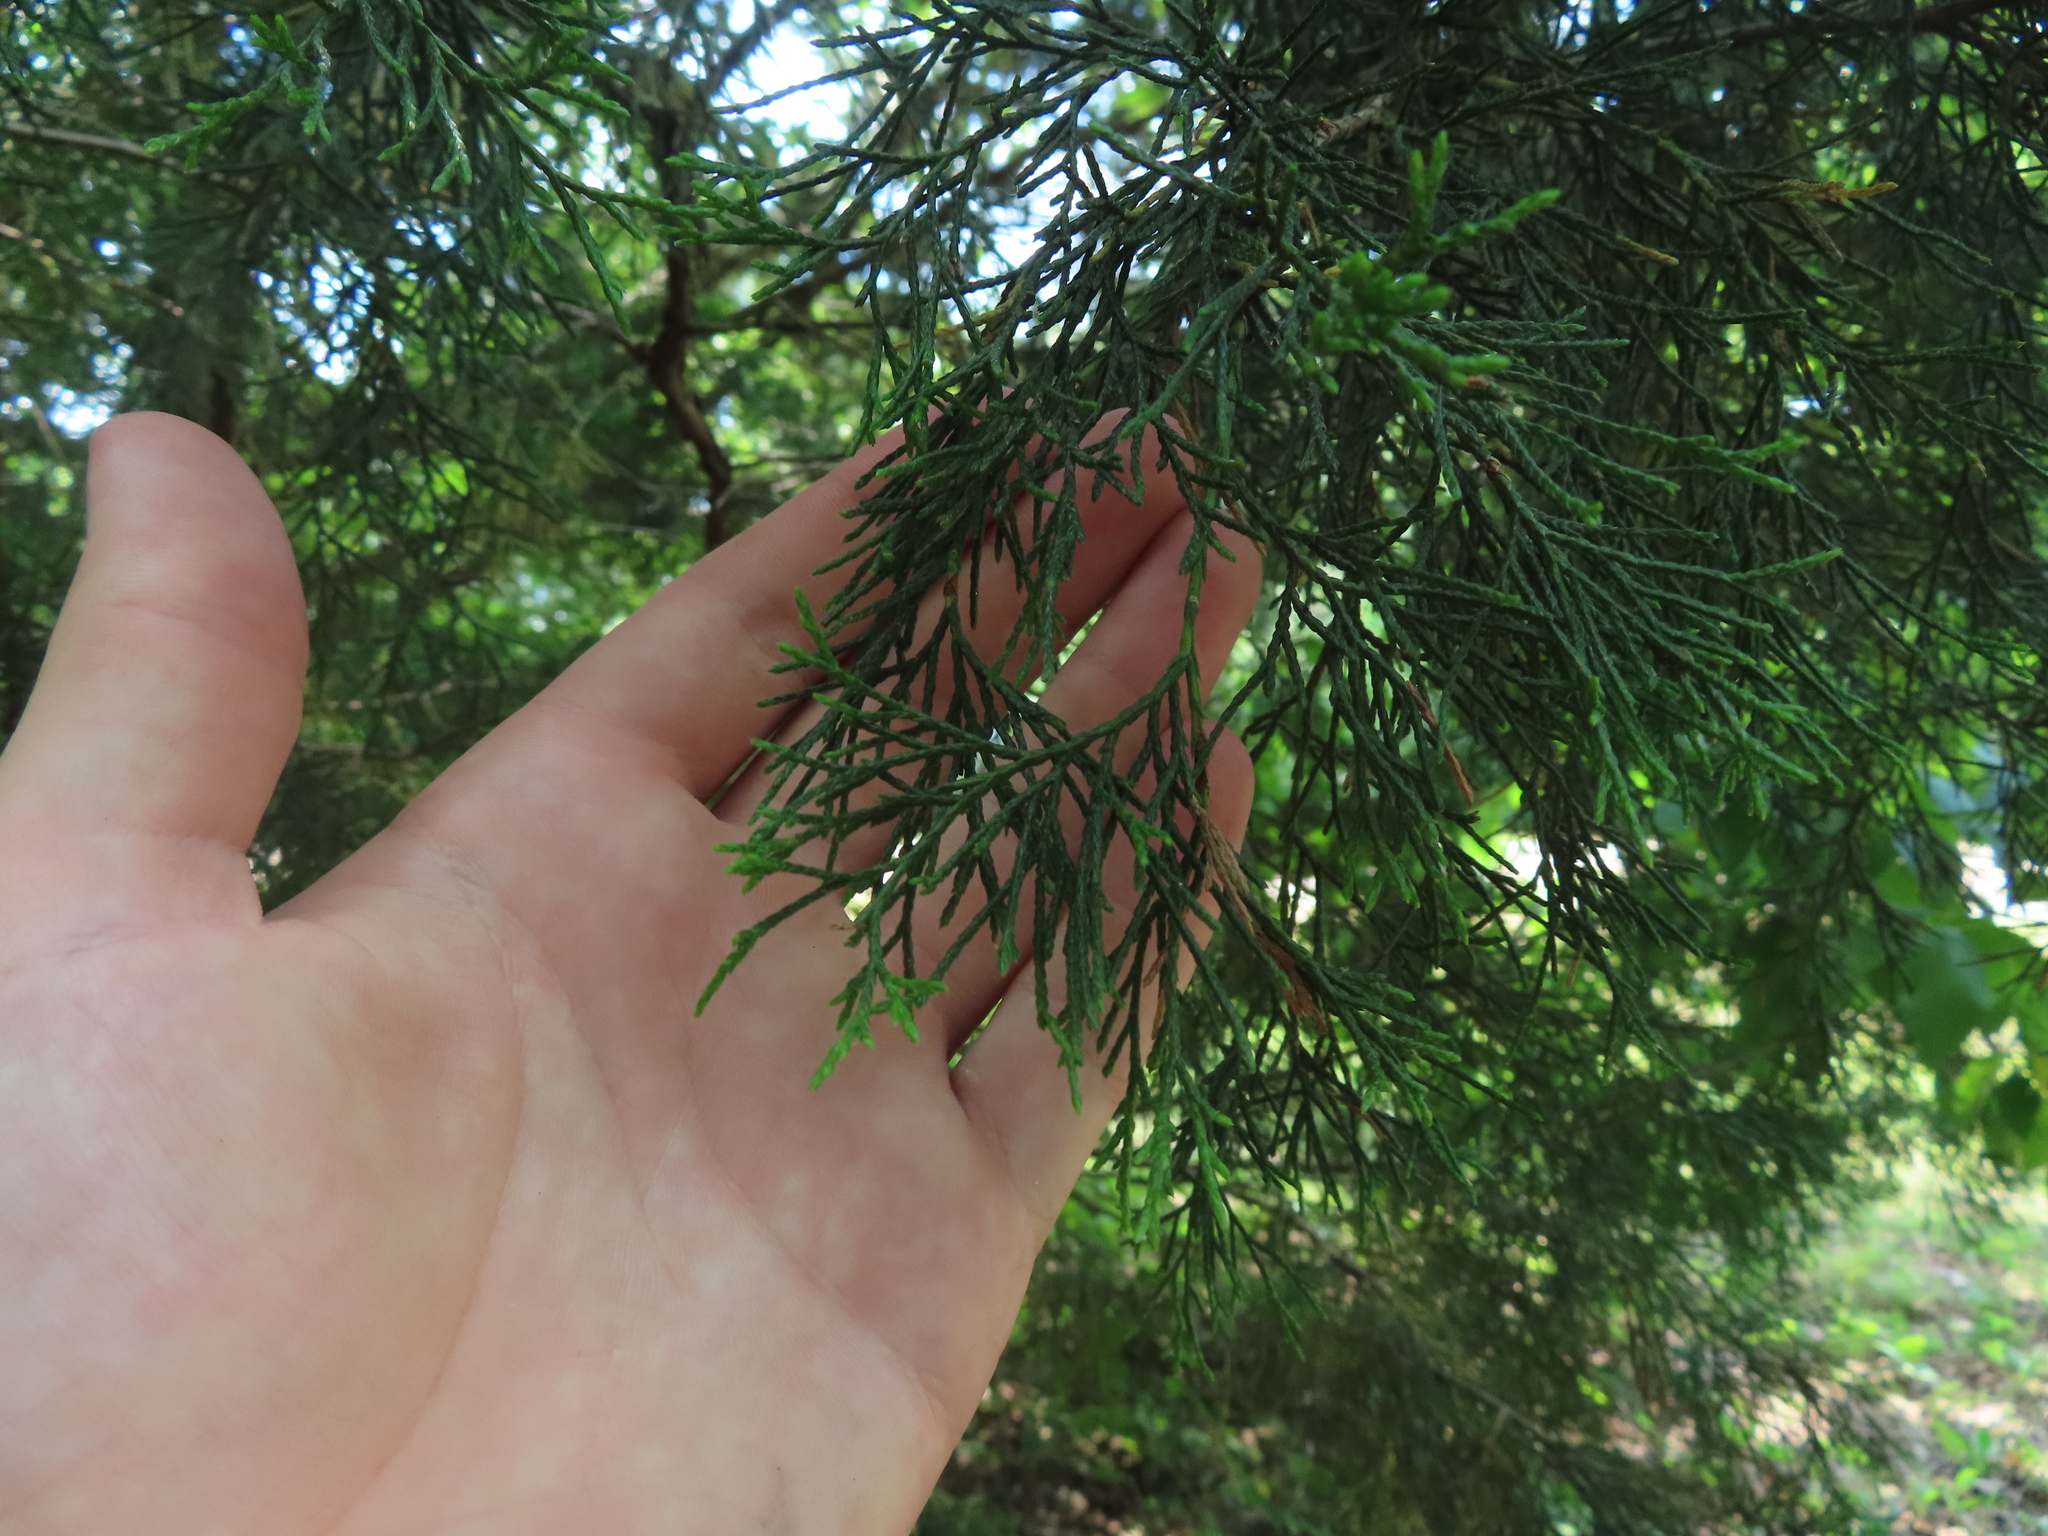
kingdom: Plantae
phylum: Tracheophyta
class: Pinopsida
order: Pinales
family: Cupressaceae
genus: Juniperus
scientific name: Juniperus virginiana
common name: Red juniper
